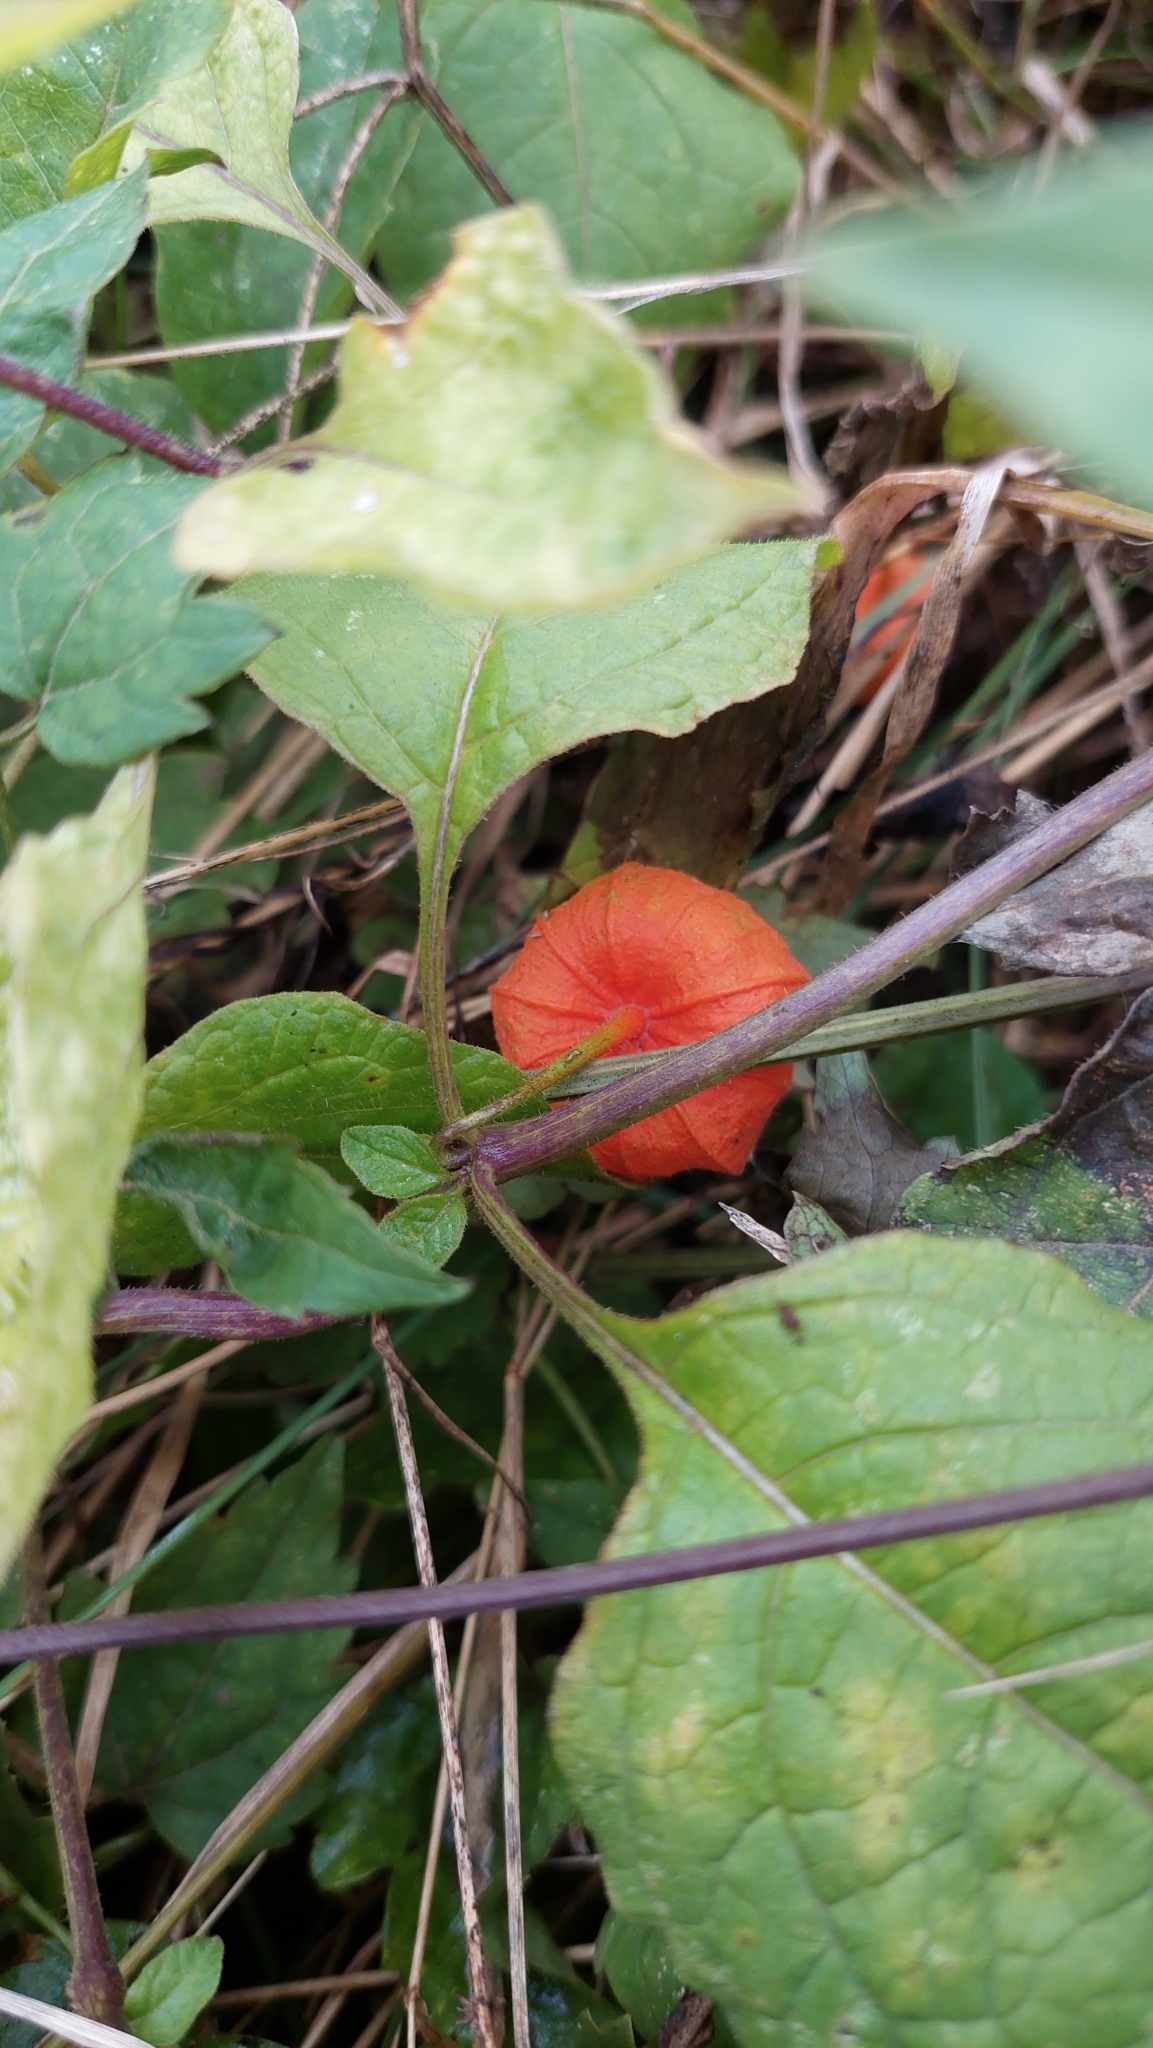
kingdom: Plantae
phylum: Tracheophyta
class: Magnoliopsida
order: Solanales
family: Solanaceae
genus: Alkekengi
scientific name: Alkekengi officinarum
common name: Japanese-lantern
